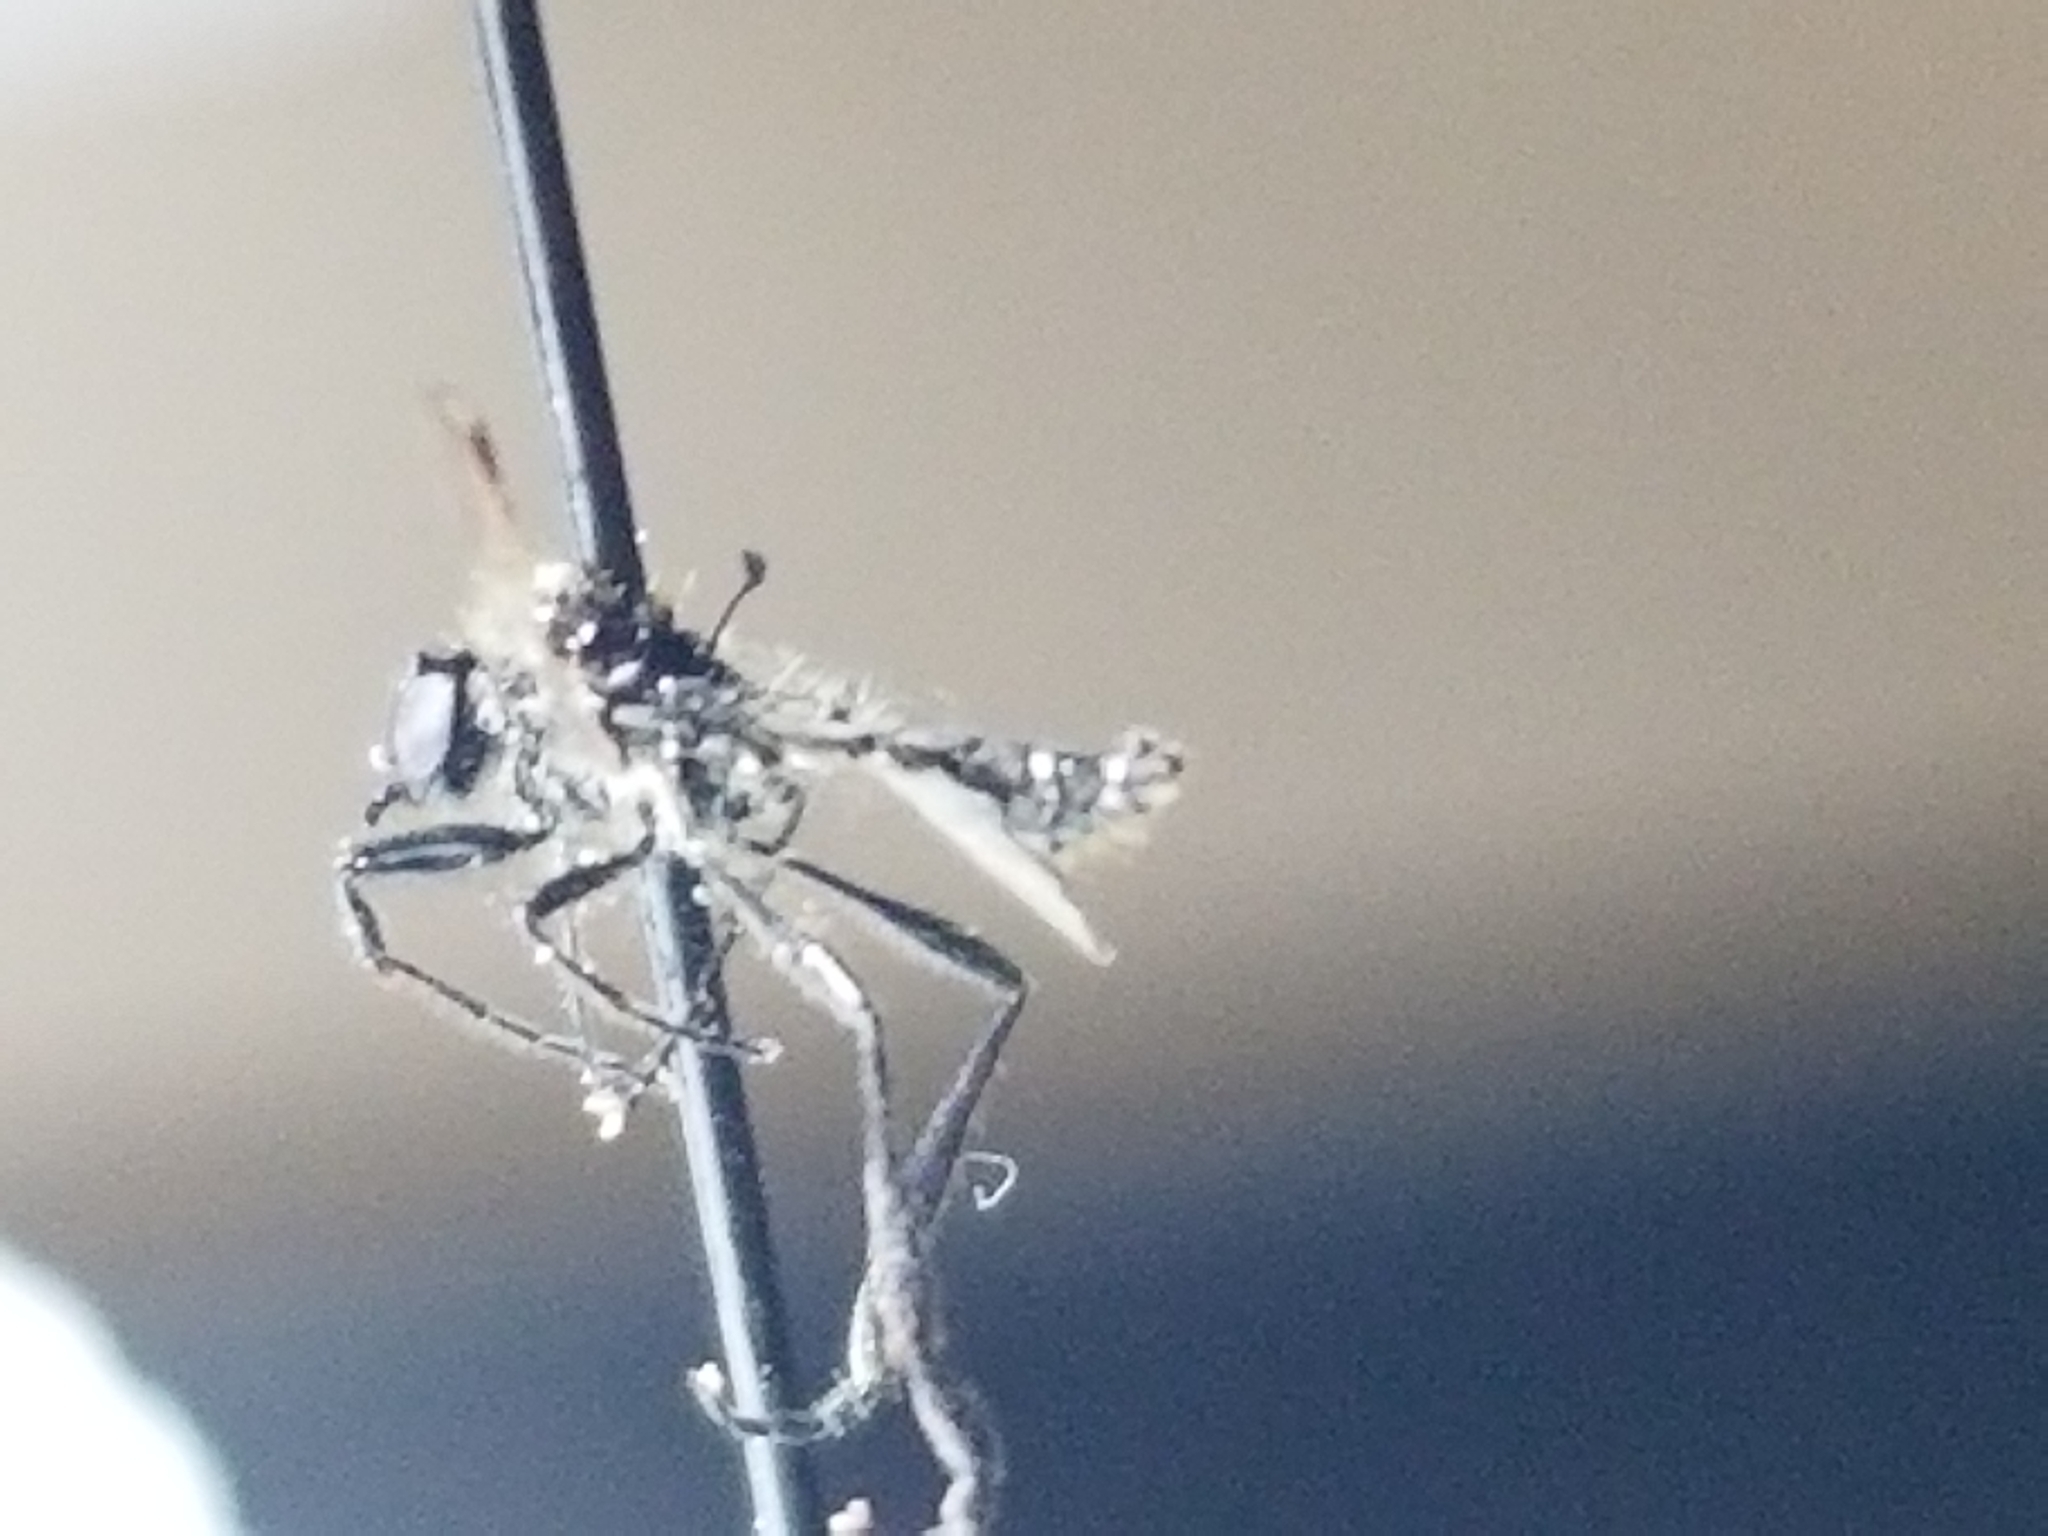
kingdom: Animalia
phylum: Arthropoda
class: Insecta
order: Diptera
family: Bibionidae
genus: Bibio
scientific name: Bibio longipes
